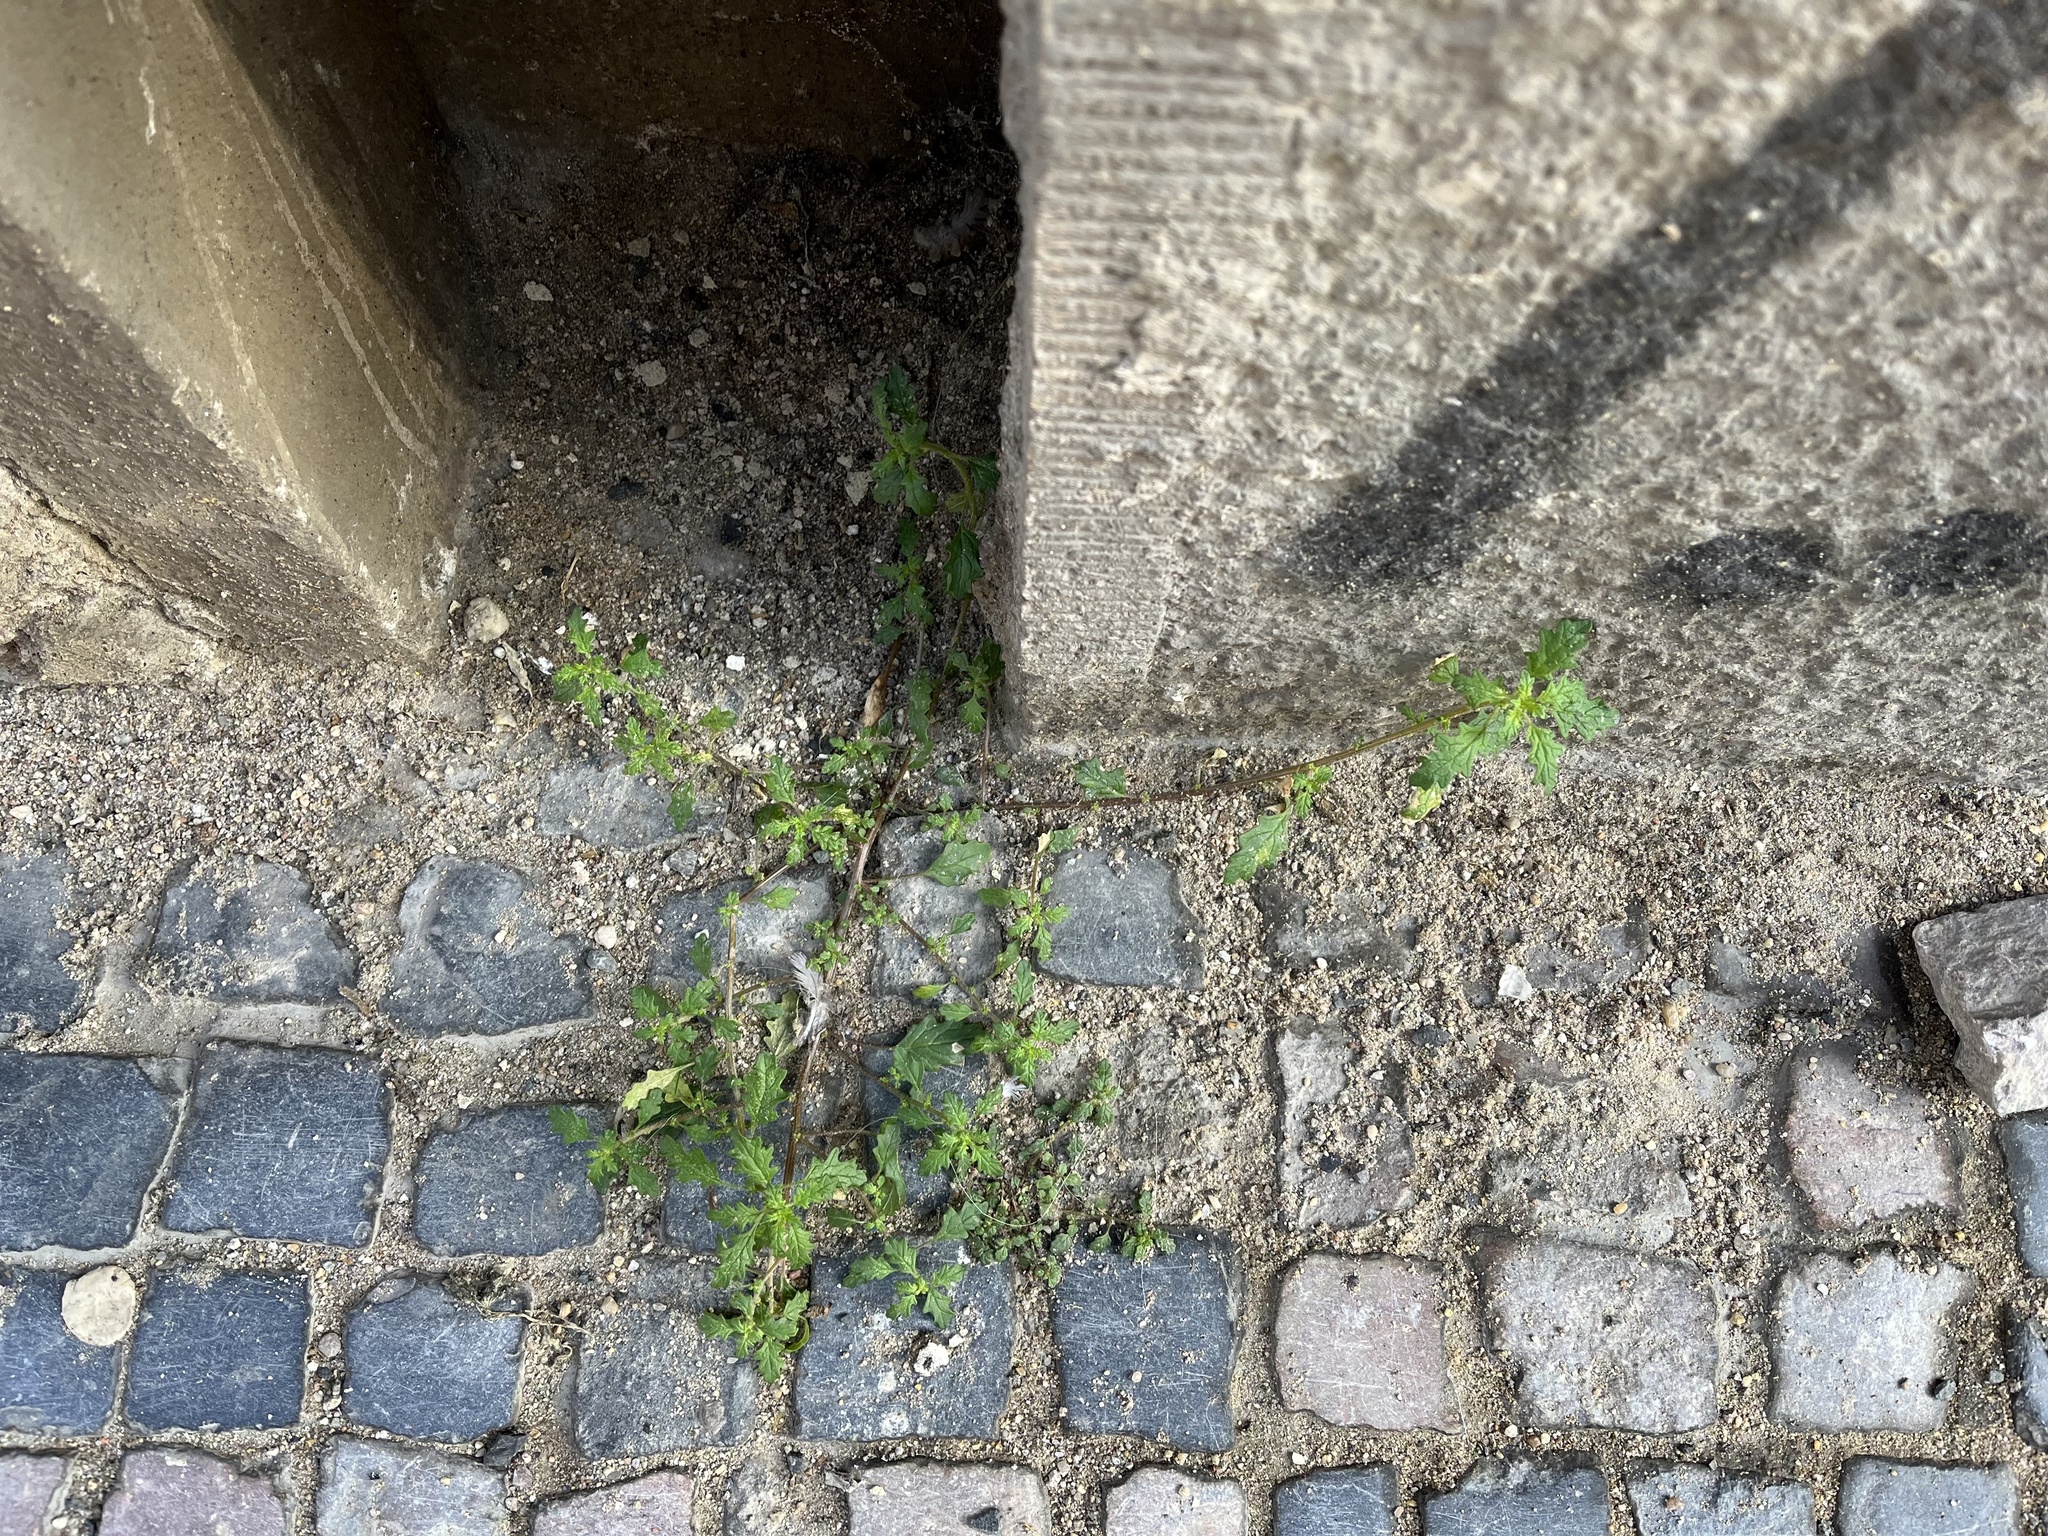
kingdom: Plantae
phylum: Tracheophyta
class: Magnoliopsida
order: Caryophyllales
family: Amaranthaceae
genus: Dysphania
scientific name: Dysphania pumilio
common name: Clammy goosefoot
